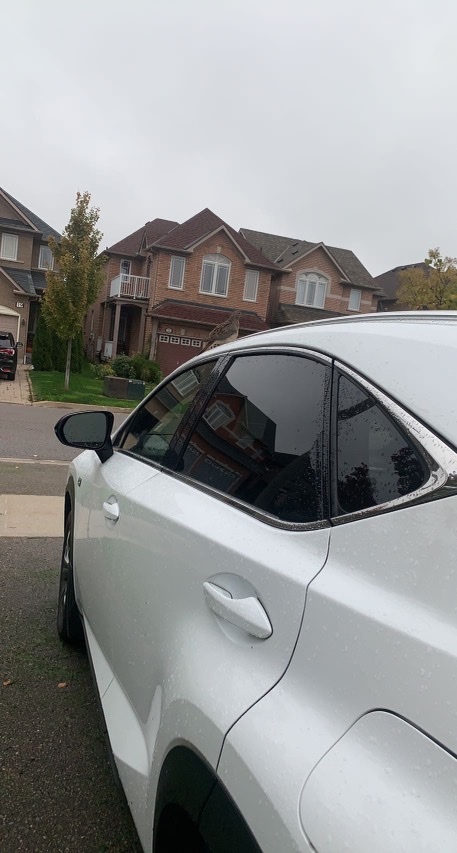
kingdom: Animalia
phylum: Chordata
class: Aves
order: Columbiformes
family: Columbidae
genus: Zenaida
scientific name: Zenaida macroura
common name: Mourning dove
